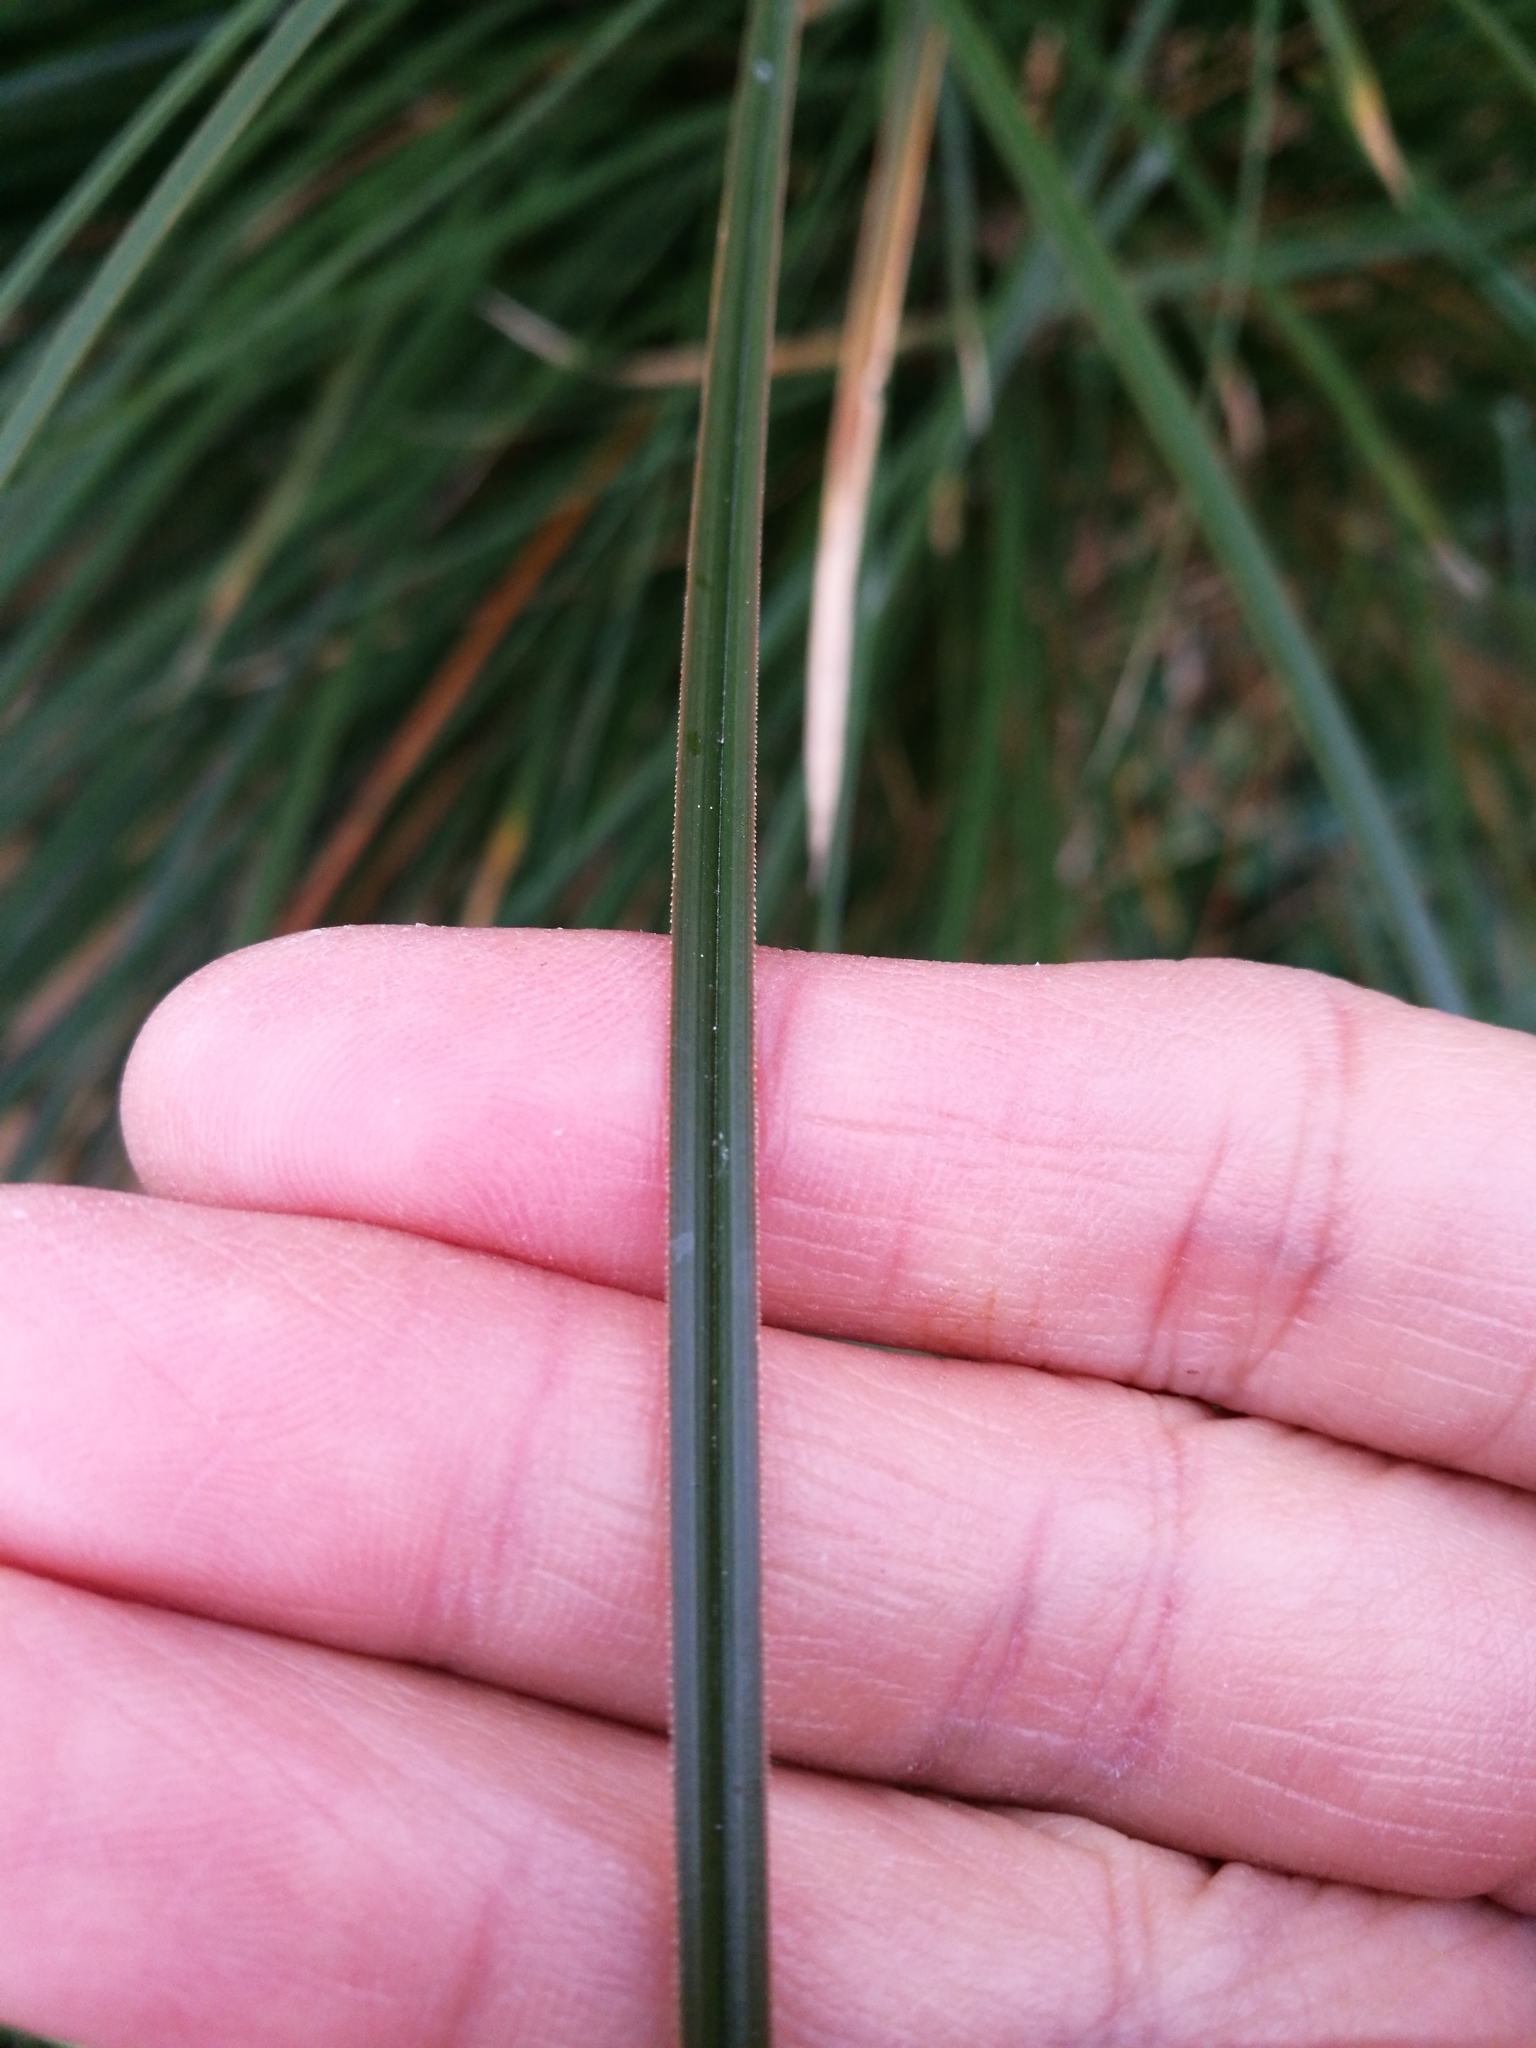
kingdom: Plantae
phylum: Tracheophyta
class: Liliopsida
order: Poales
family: Cyperaceae
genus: Carex
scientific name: Carex secta
